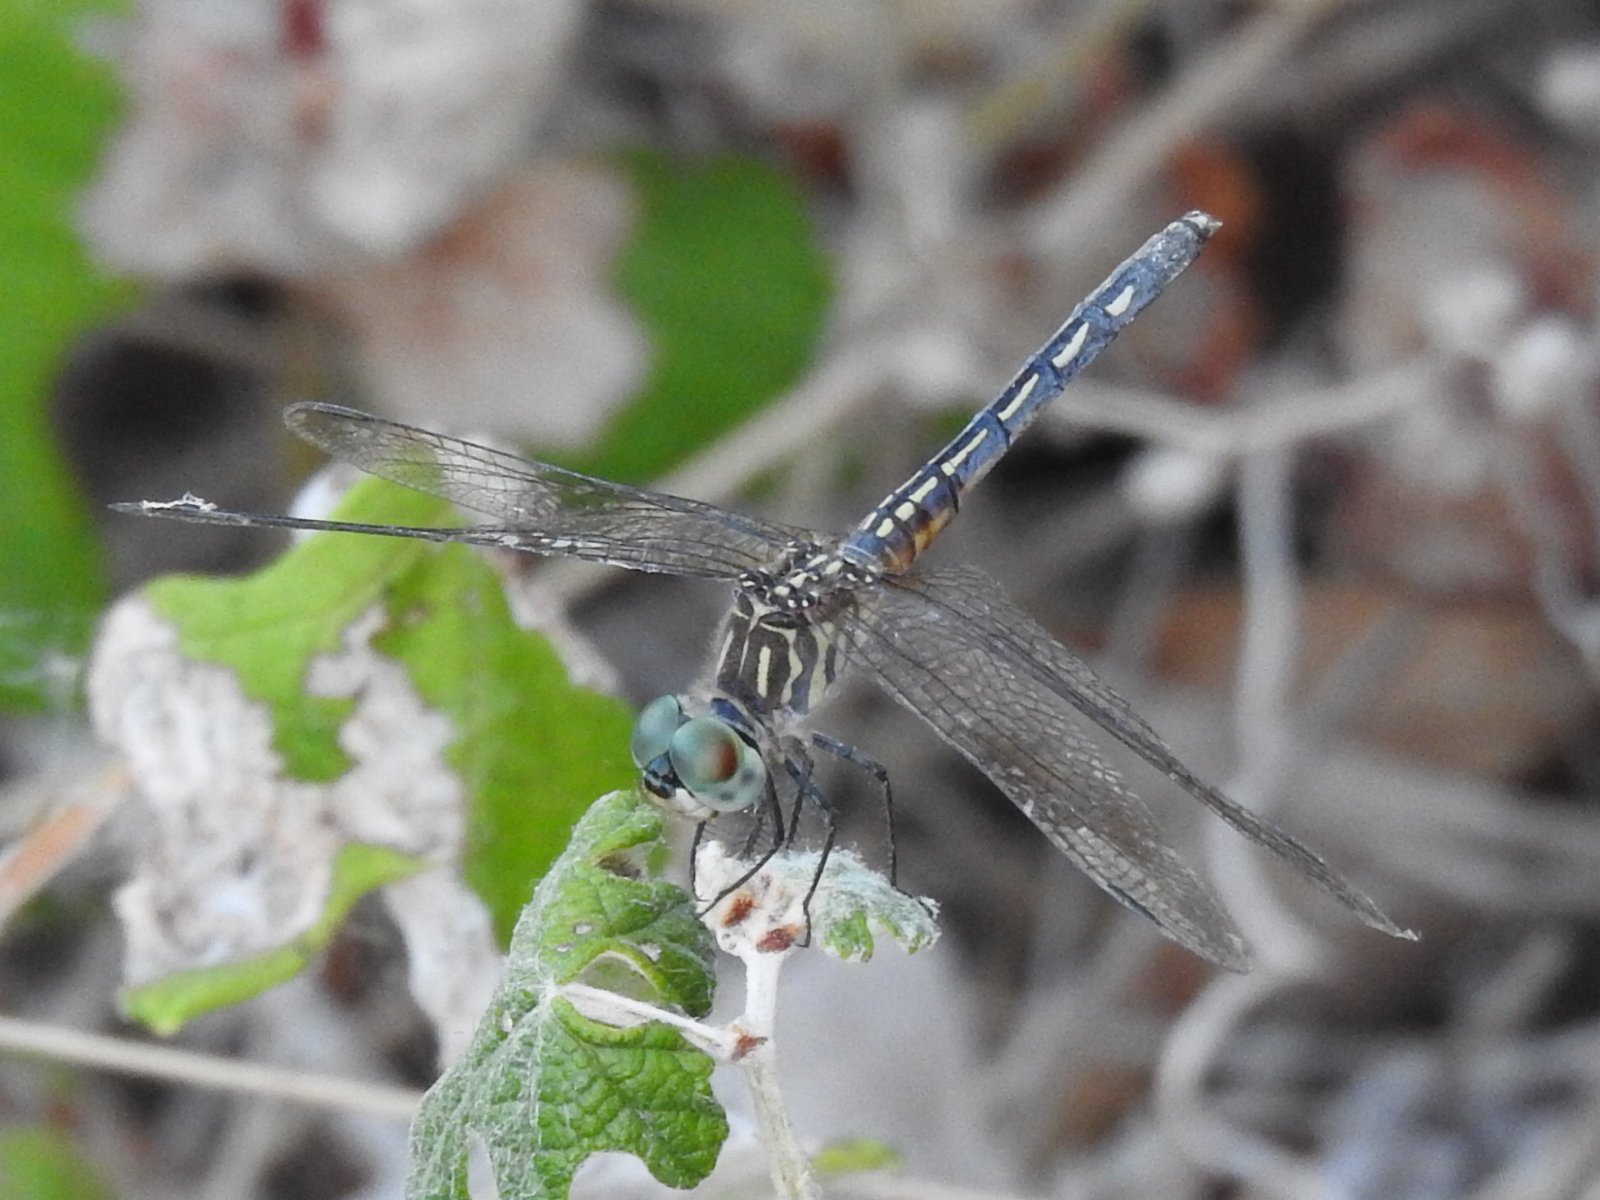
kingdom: Animalia
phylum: Arthropoda
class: Insecta
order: Odonata
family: Libellulidae
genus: Pachydiplax
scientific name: Pachydiplax longipennis
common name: Blue dasher
